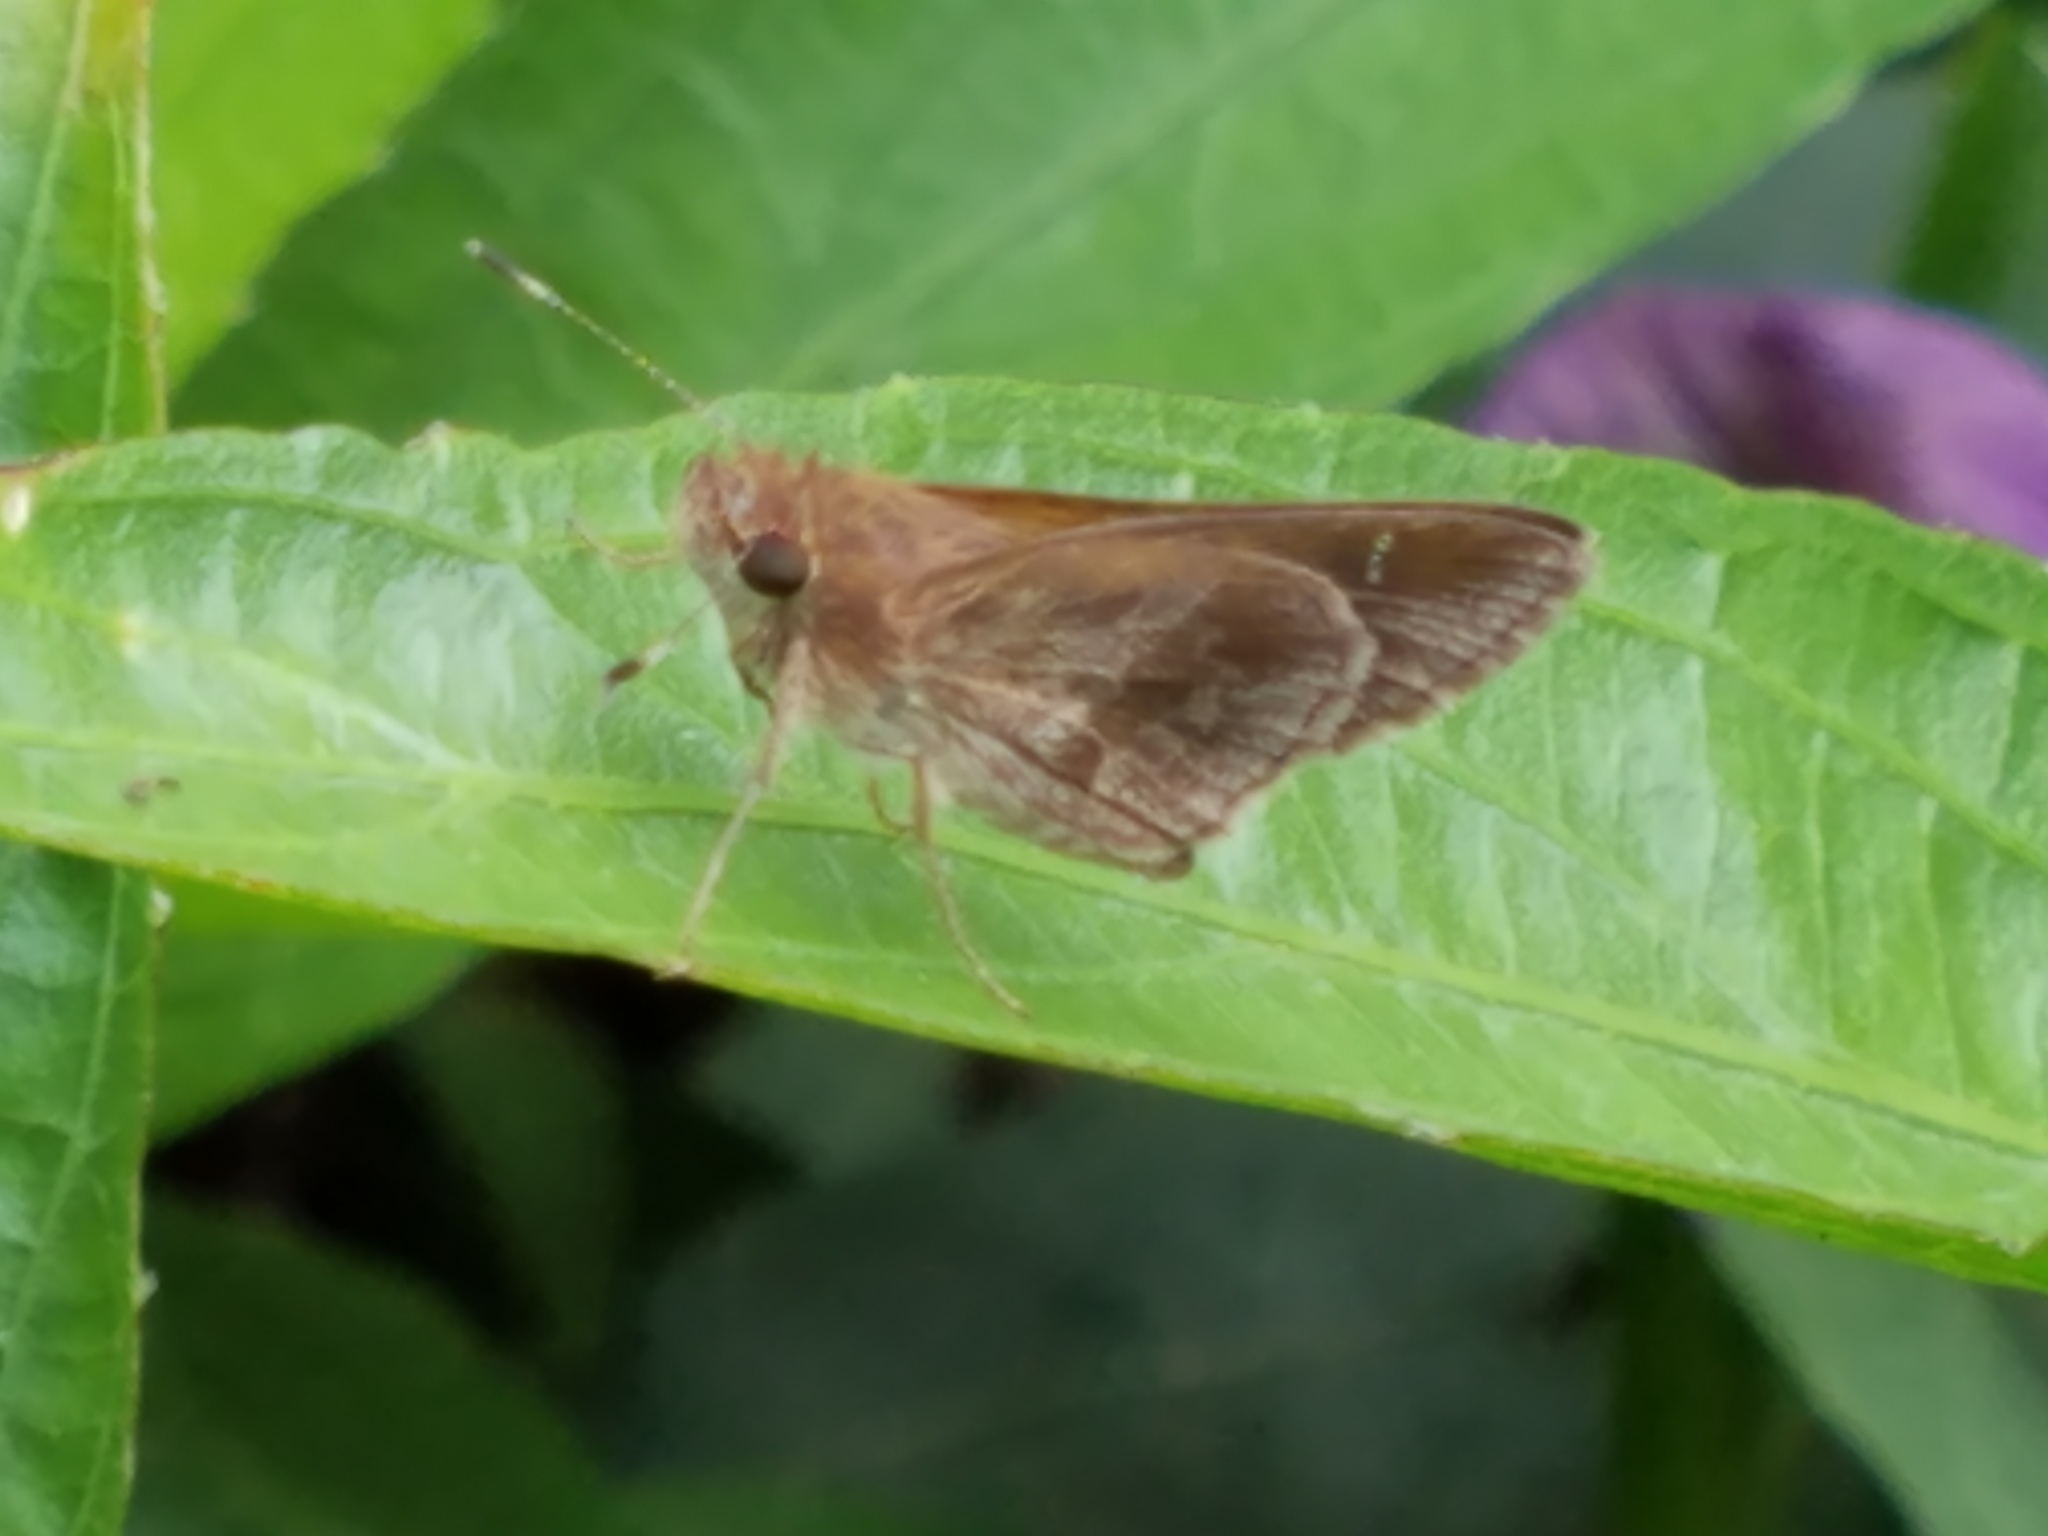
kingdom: Animalia
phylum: Arthropoda
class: Insecta
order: Lepidoptera
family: Hesperiidae
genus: Lerema
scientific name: Lerema accius
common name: Clouded skipper
